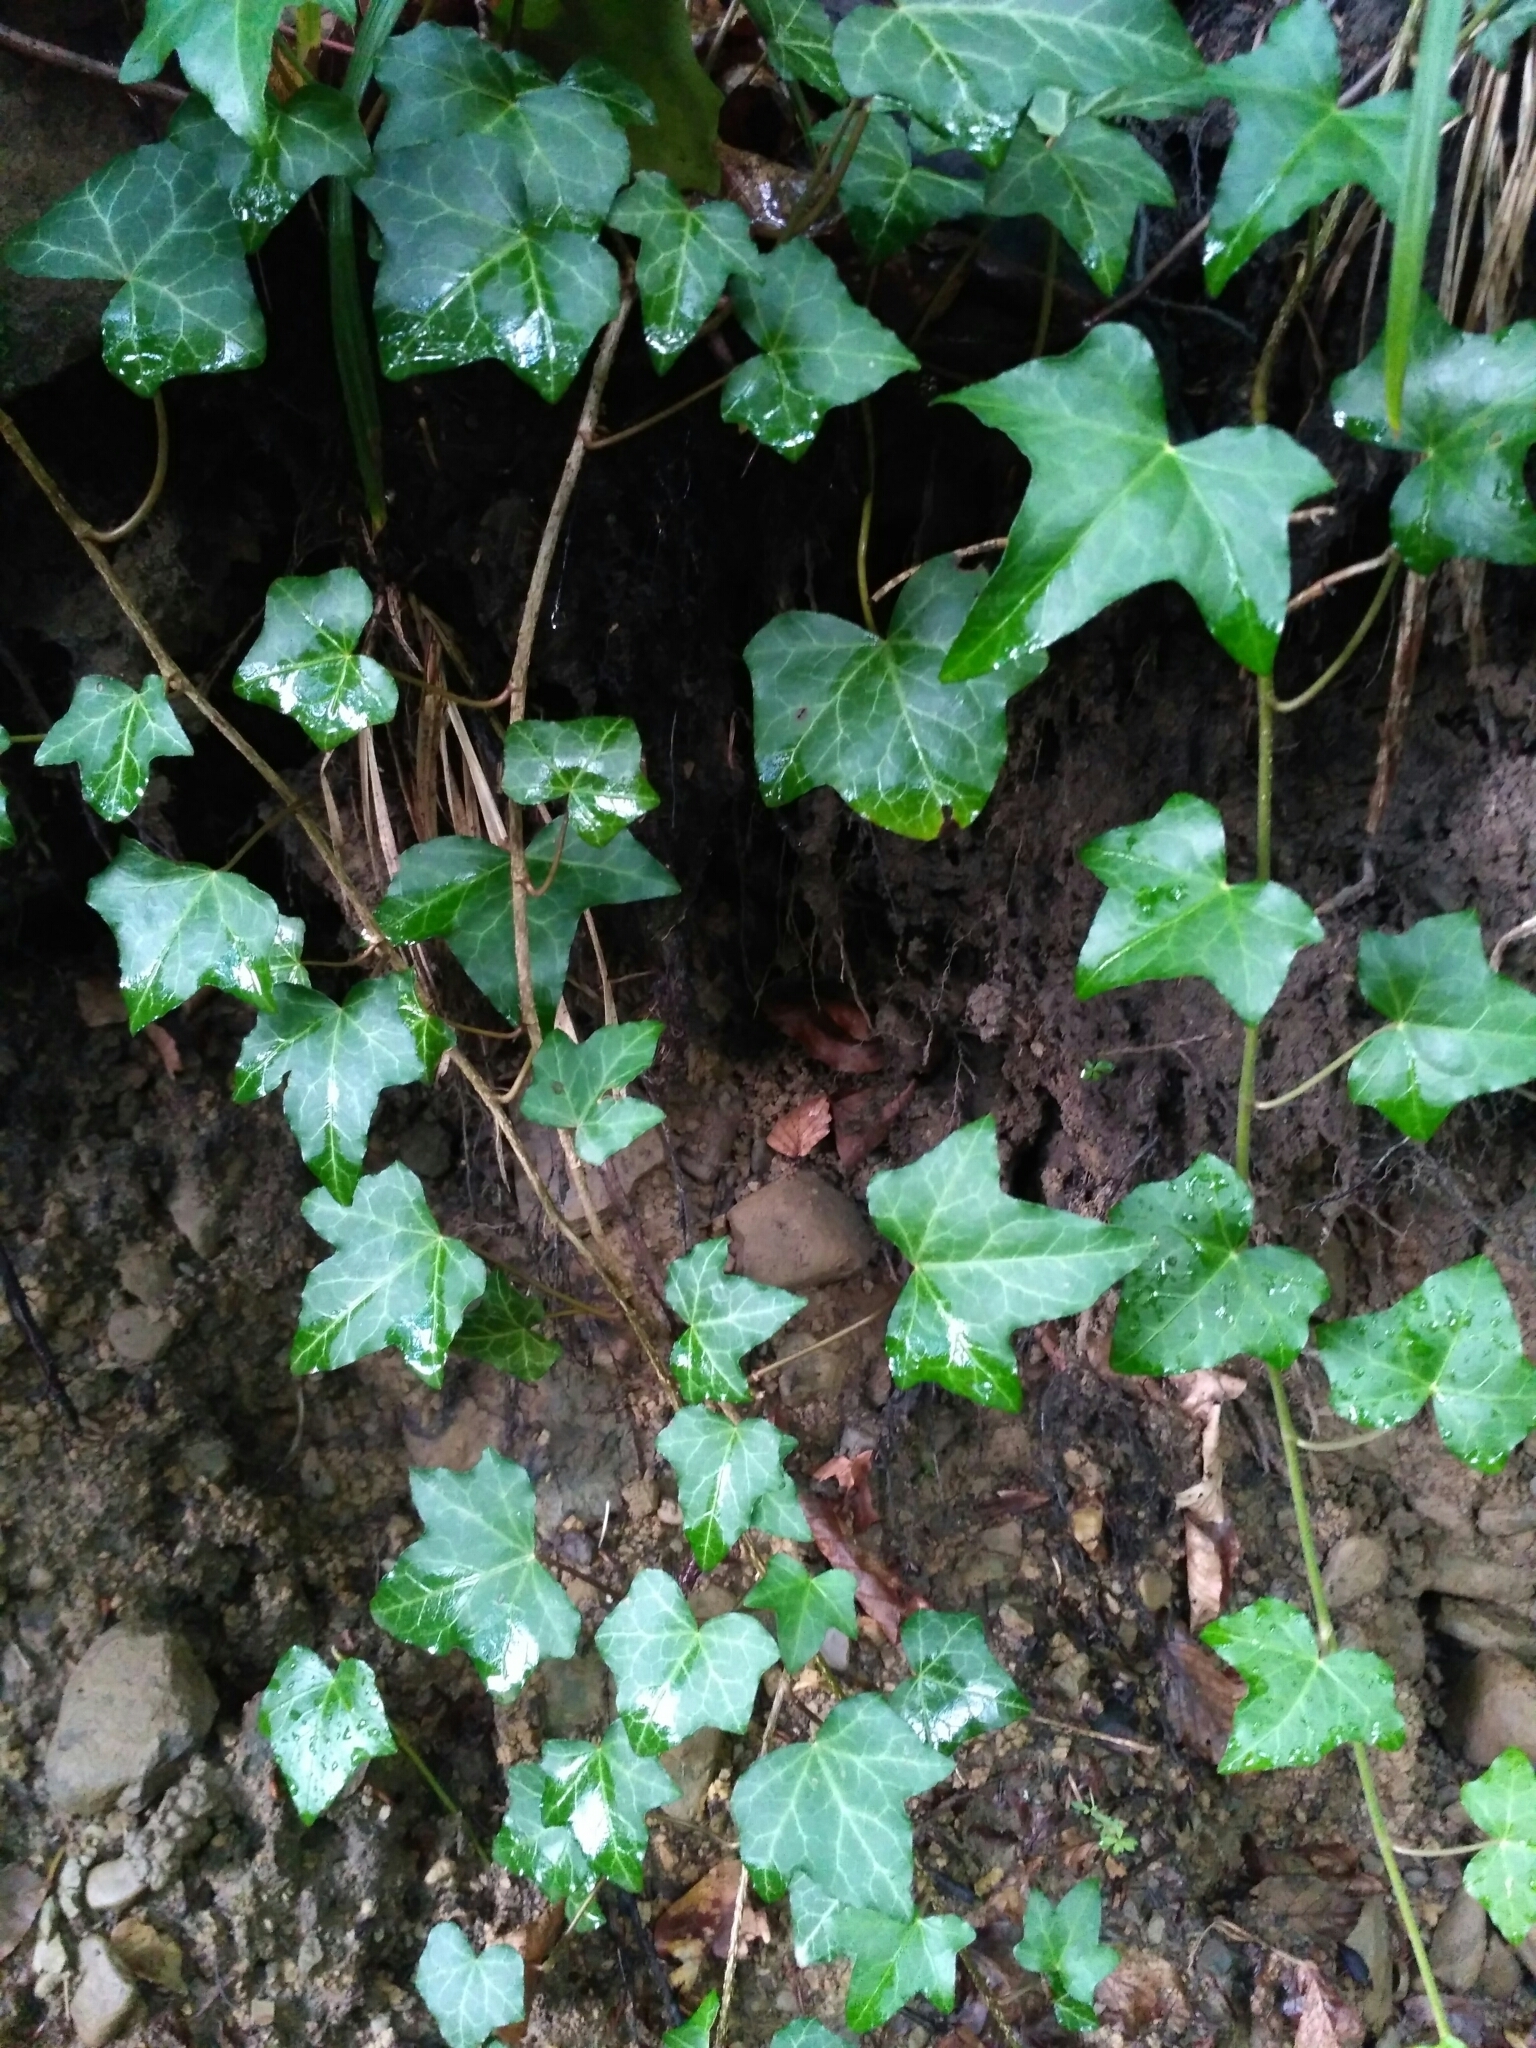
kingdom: Plantae
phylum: Tracheophyta
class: Magnoliopsida
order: Apiales
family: Araliaceae
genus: Hedera
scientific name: Hedera helix
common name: Ivy
